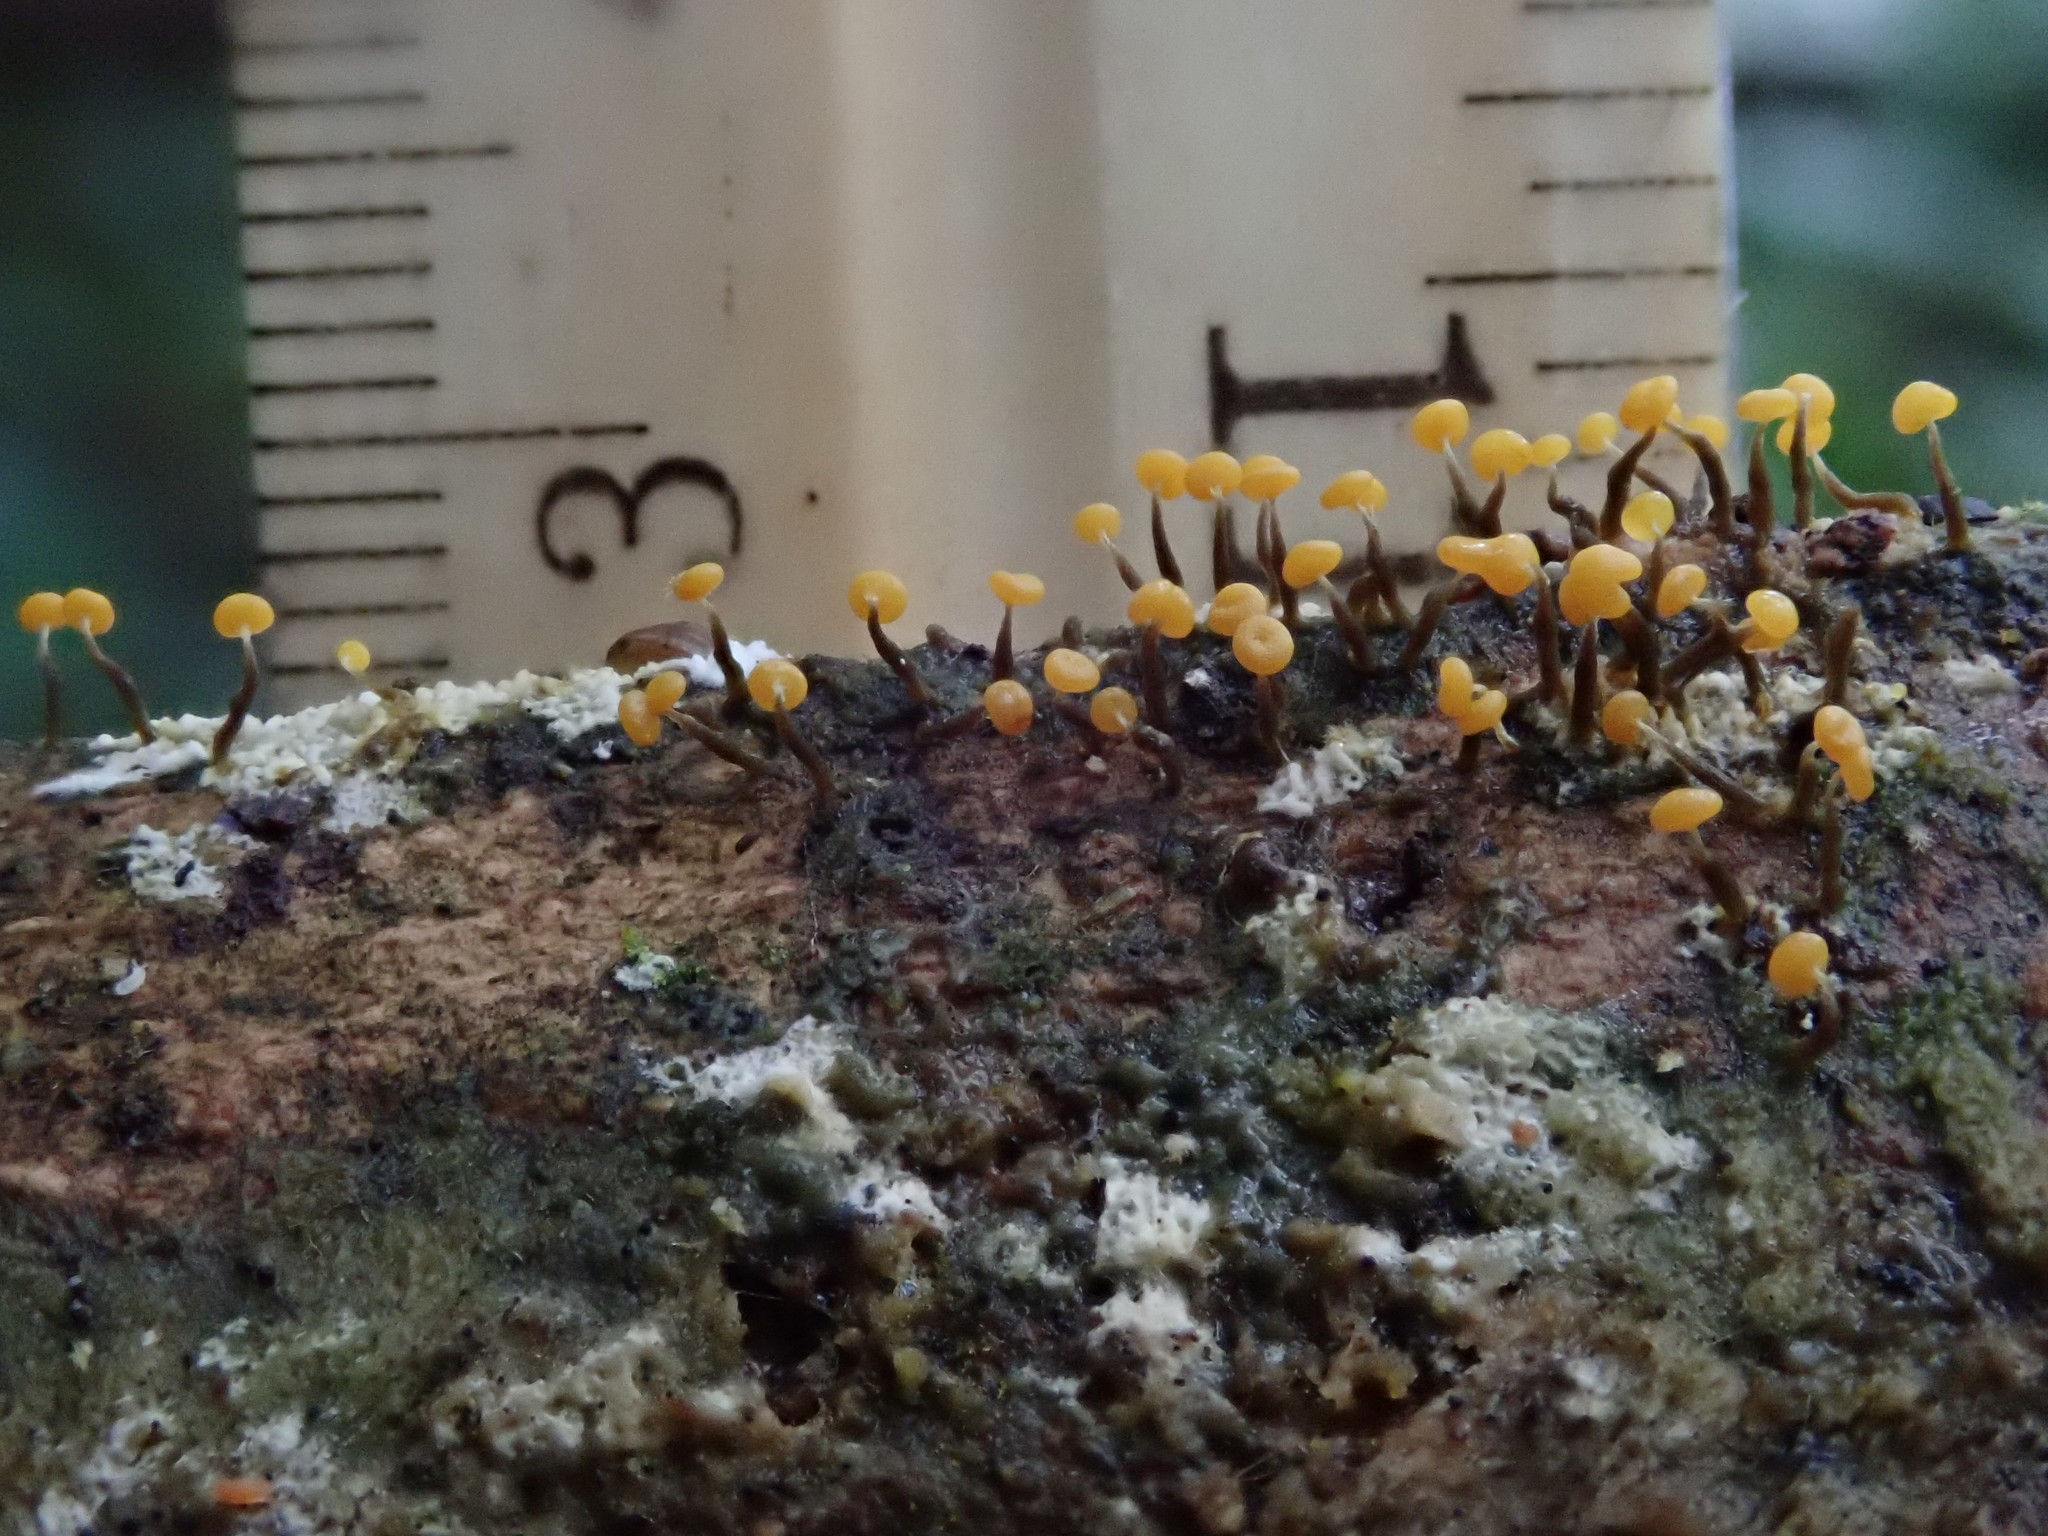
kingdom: Protozoa
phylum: Mycetozoa
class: Myxomycetes
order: Physarales
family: Physaraceae
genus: Physarum
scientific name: Physarum viride
